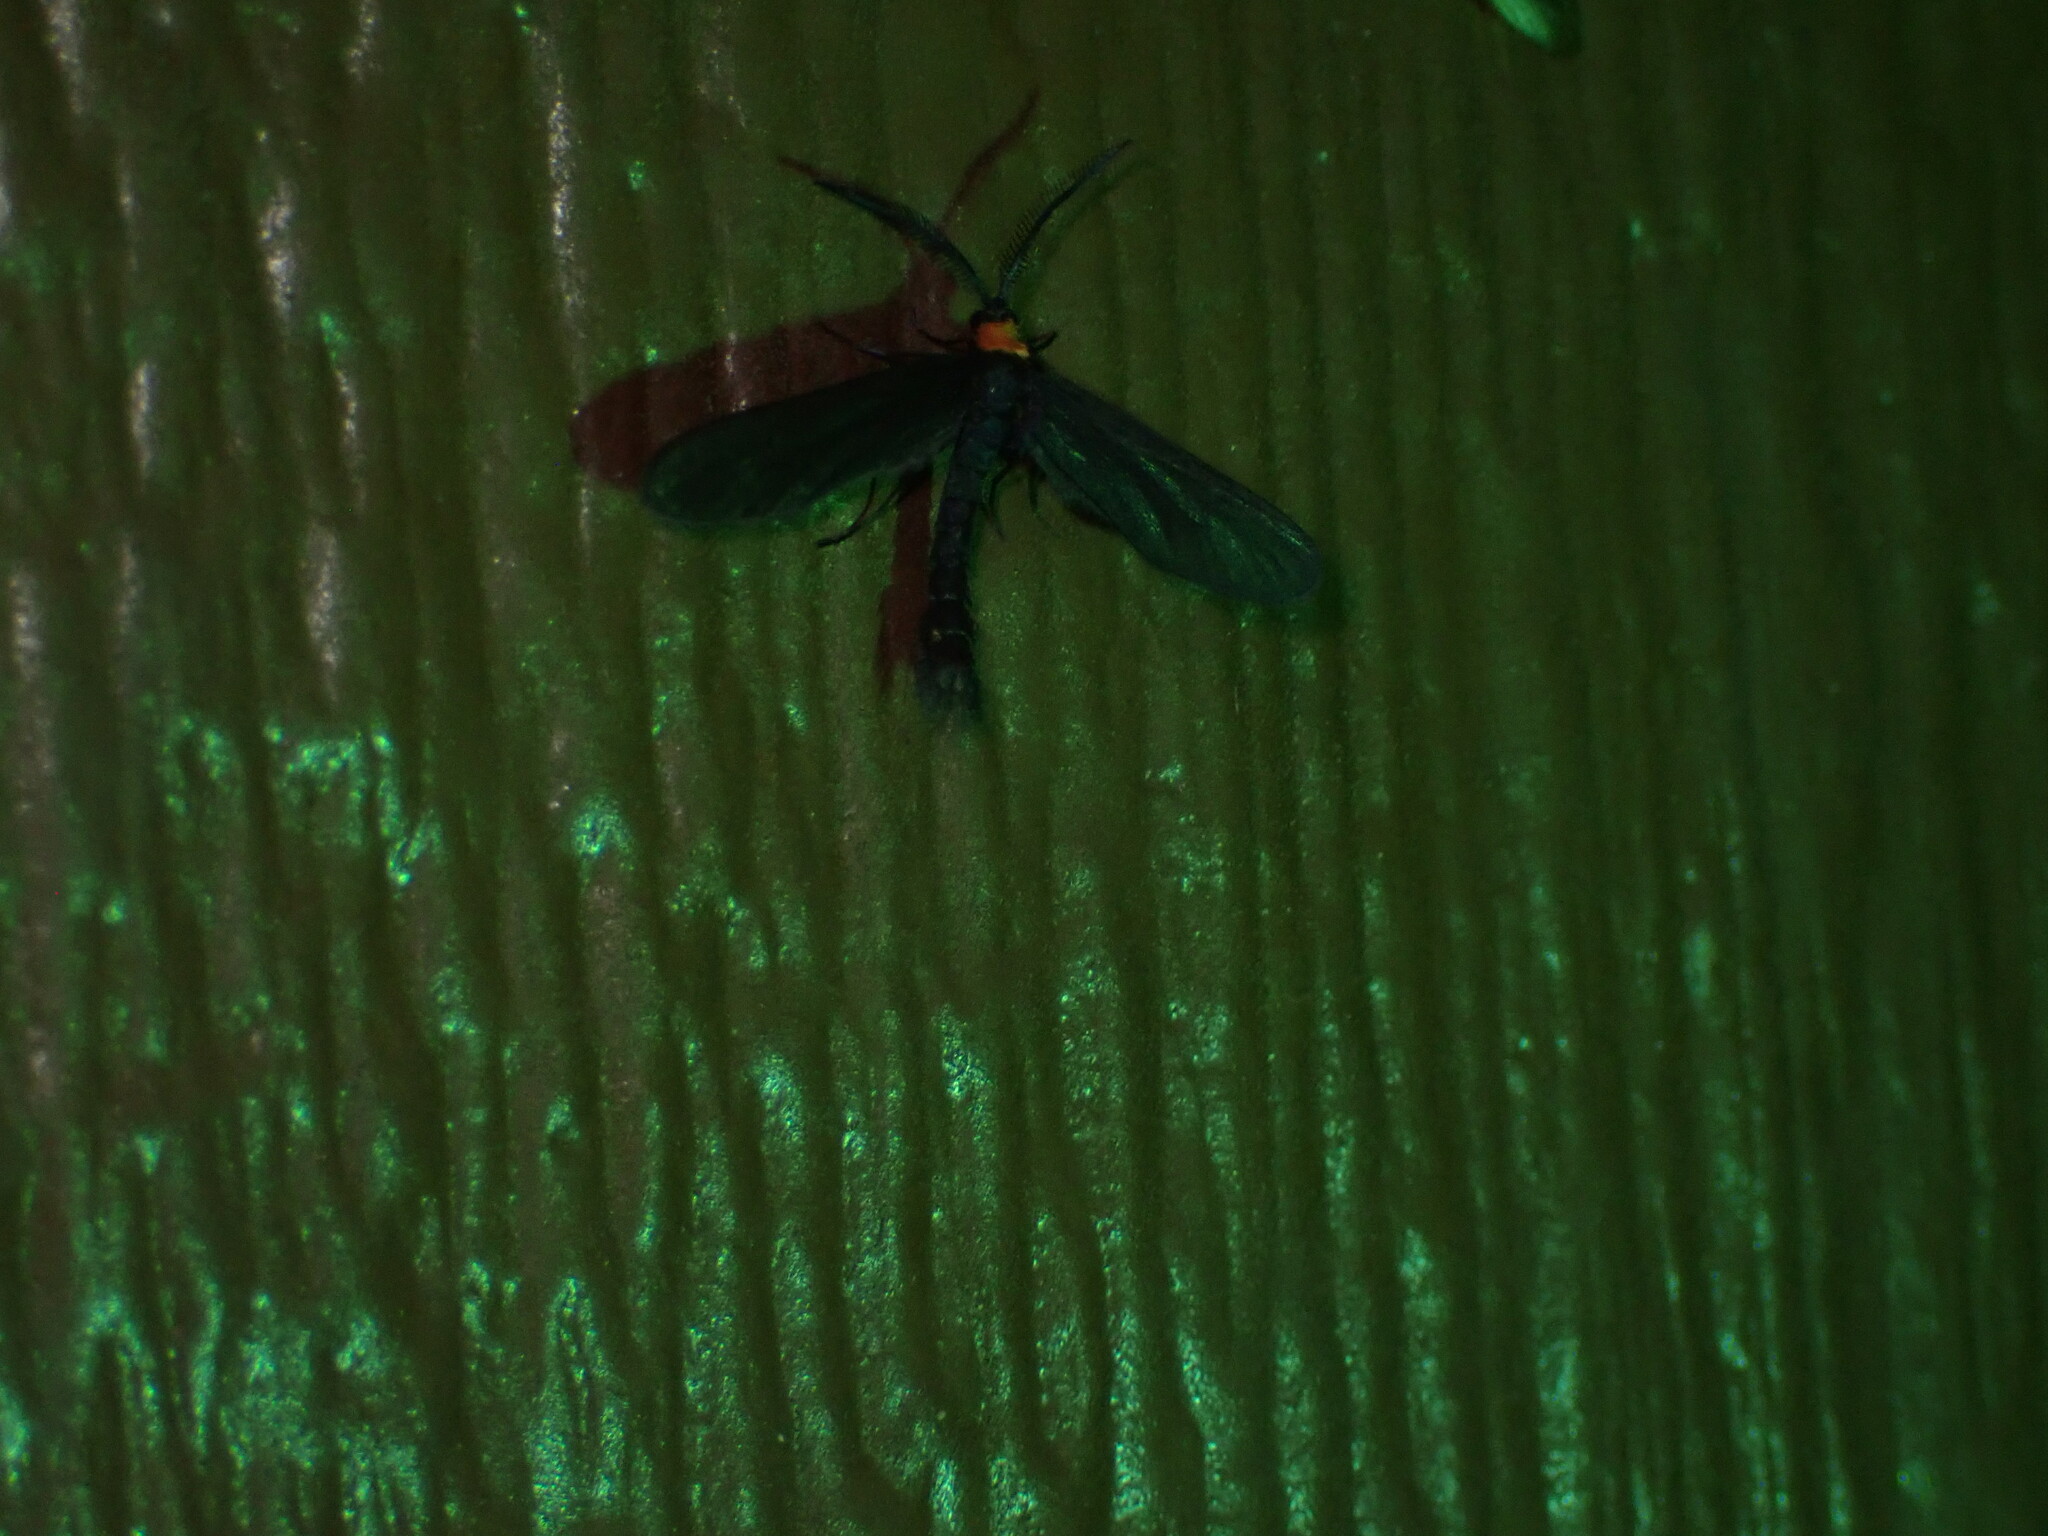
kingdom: Animalia
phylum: Arthropoda
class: Insecta
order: Lepidoptera
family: Zygaenidae
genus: Harrisina
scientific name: Harrisina americana
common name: Grapeleaf skeletonizer moth
